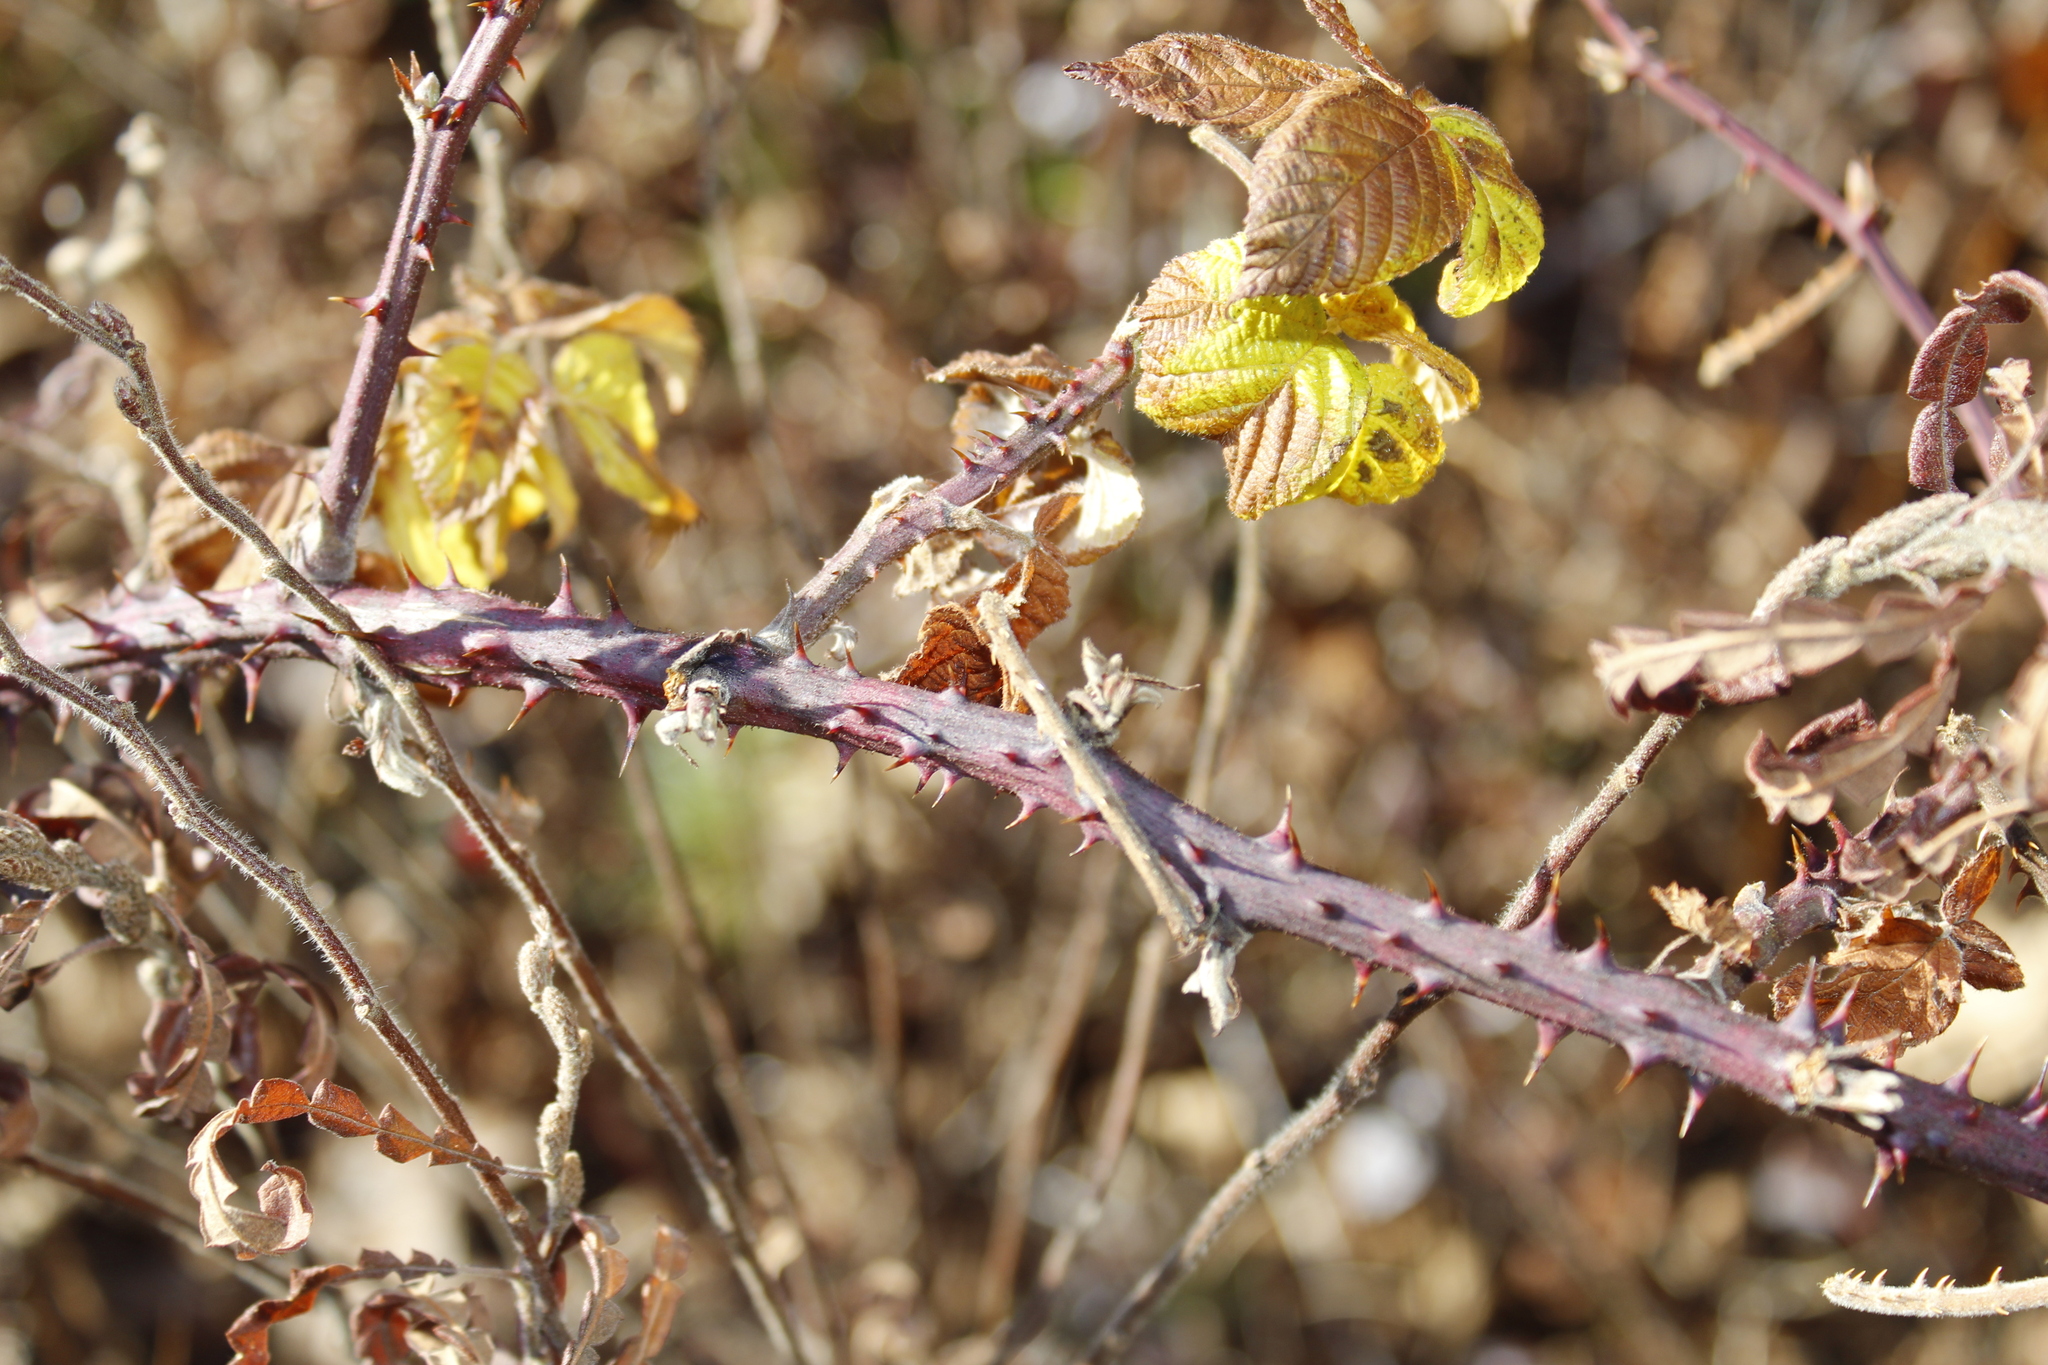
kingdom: Plantae
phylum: Tracheophyta
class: Magnoliopsida
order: Rosales
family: Rosaceae
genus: Rubus
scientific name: Rubus occidentalis
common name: Black raspberry
